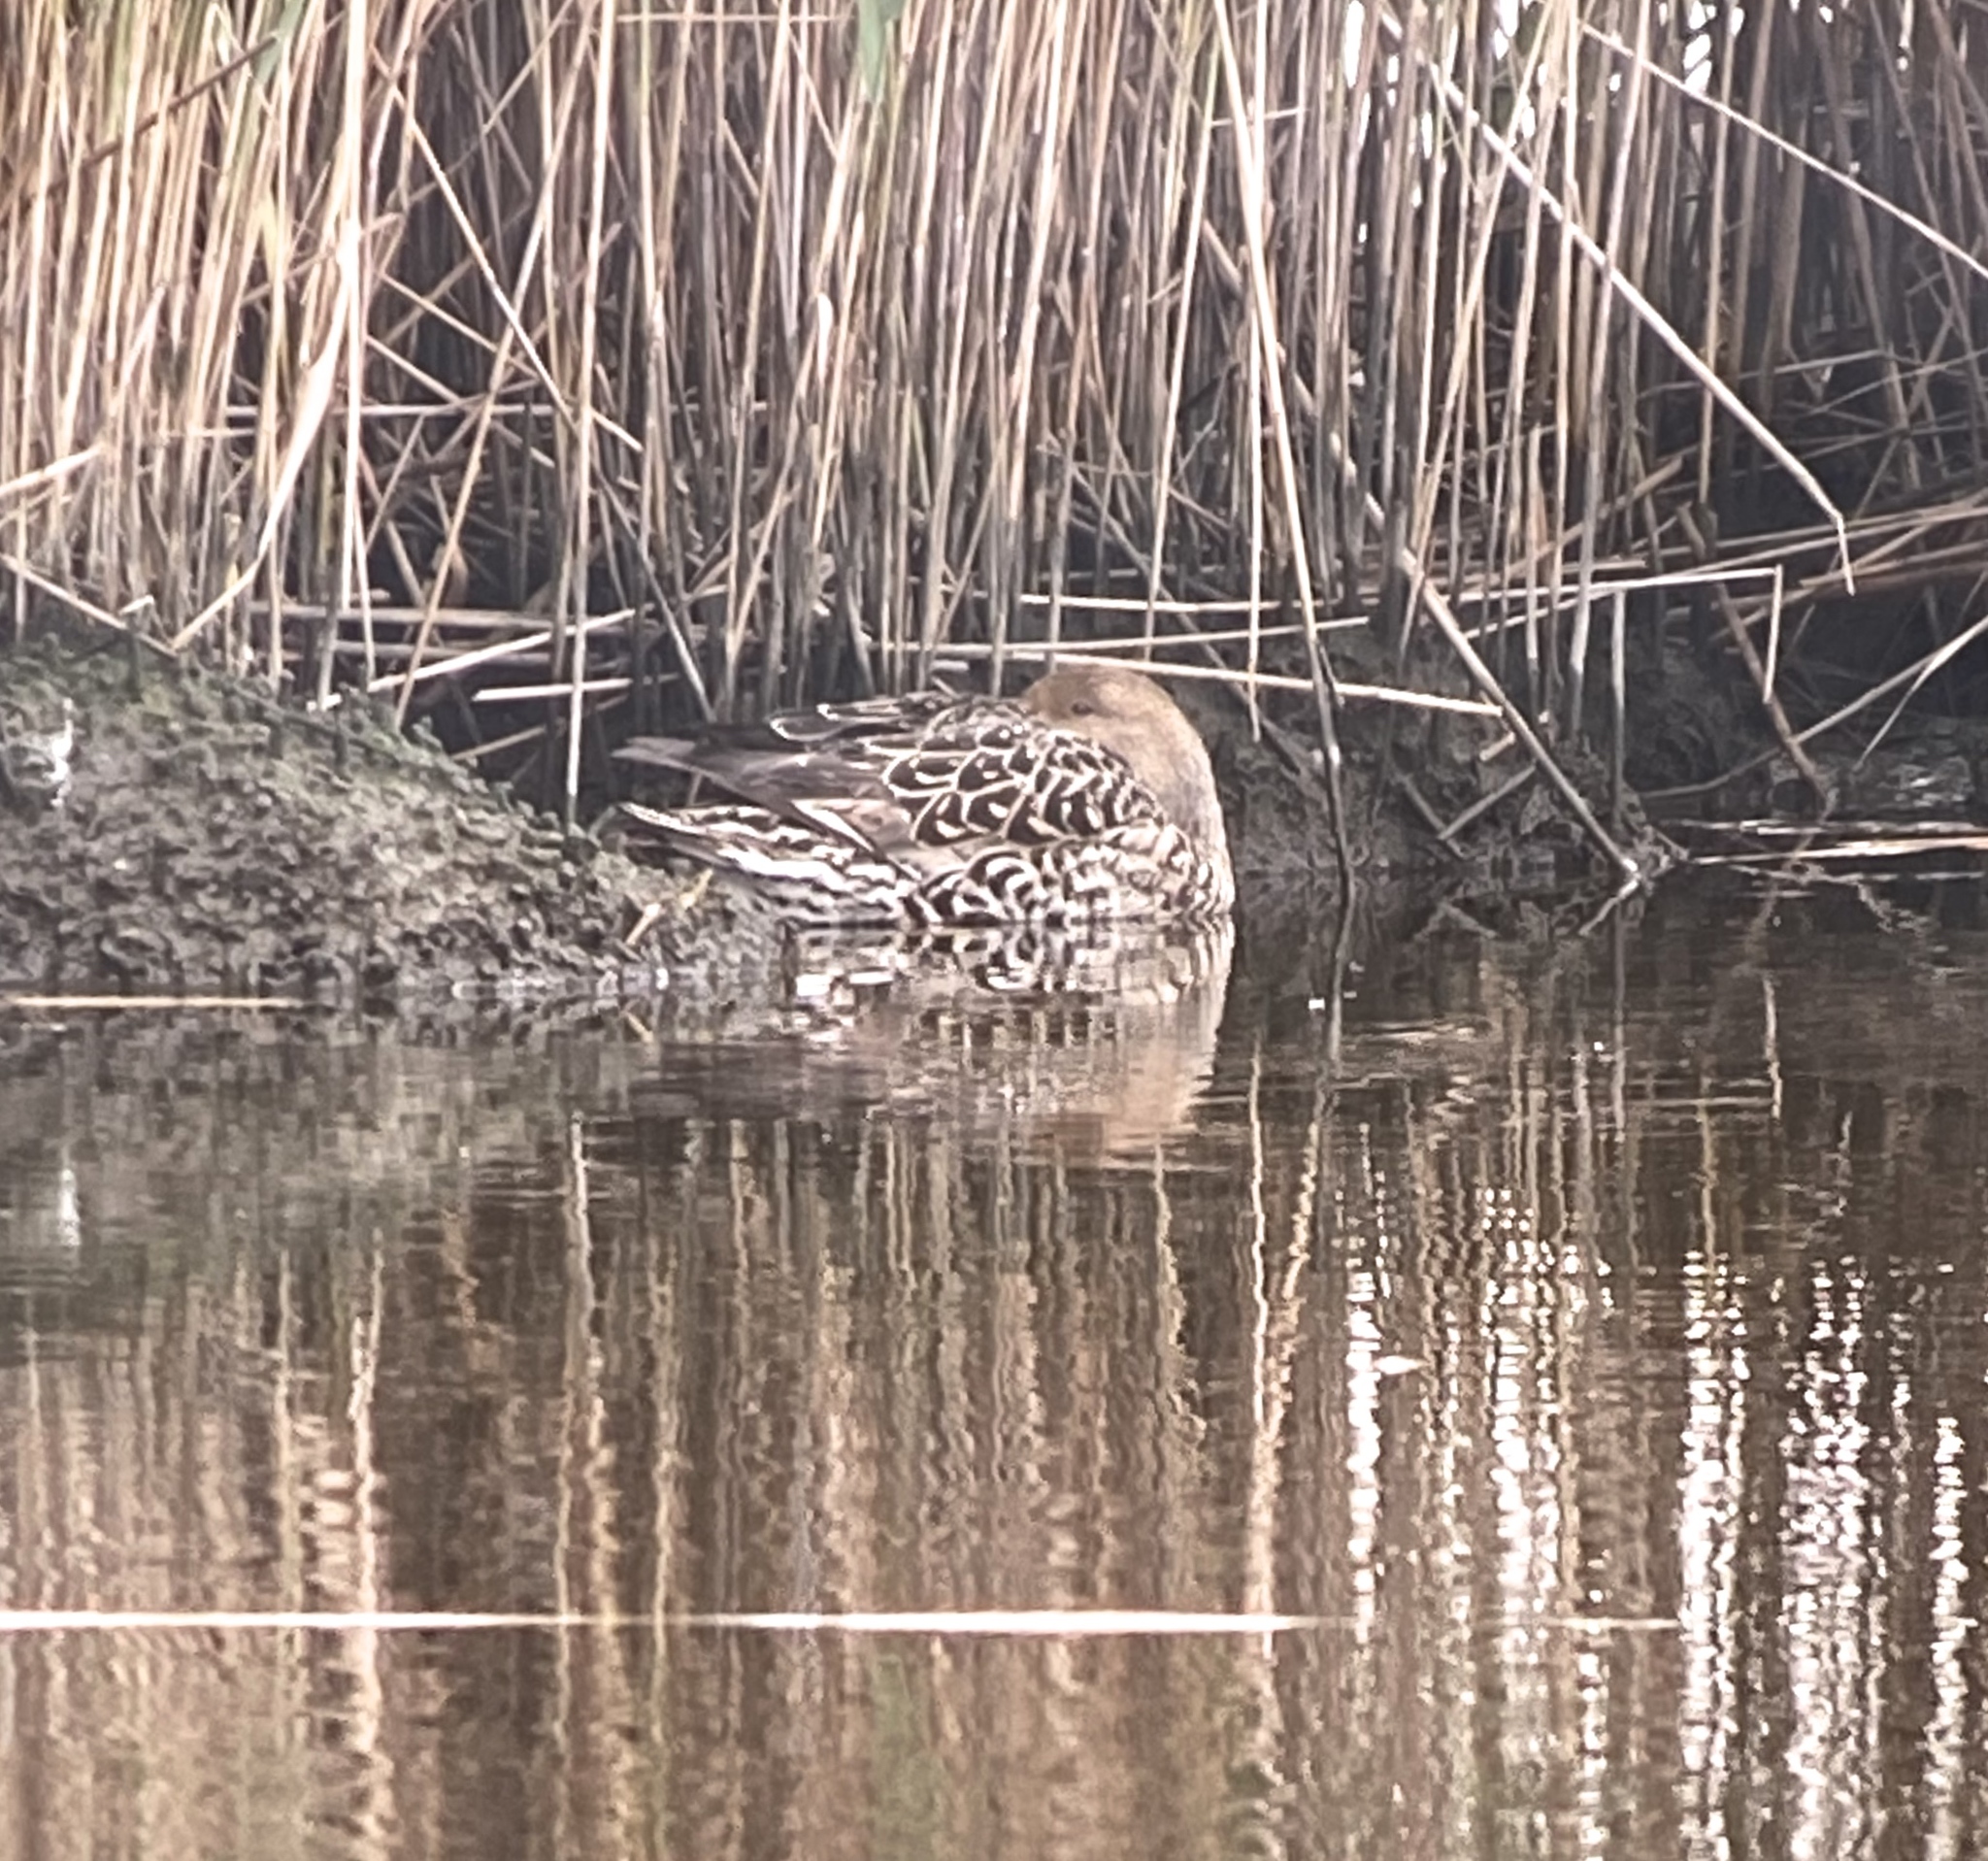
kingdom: Animalia
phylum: Chordata
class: Aves
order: Anseriformes
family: Anatidae
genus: Anas
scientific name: Anas acuta
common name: Northern pintail
